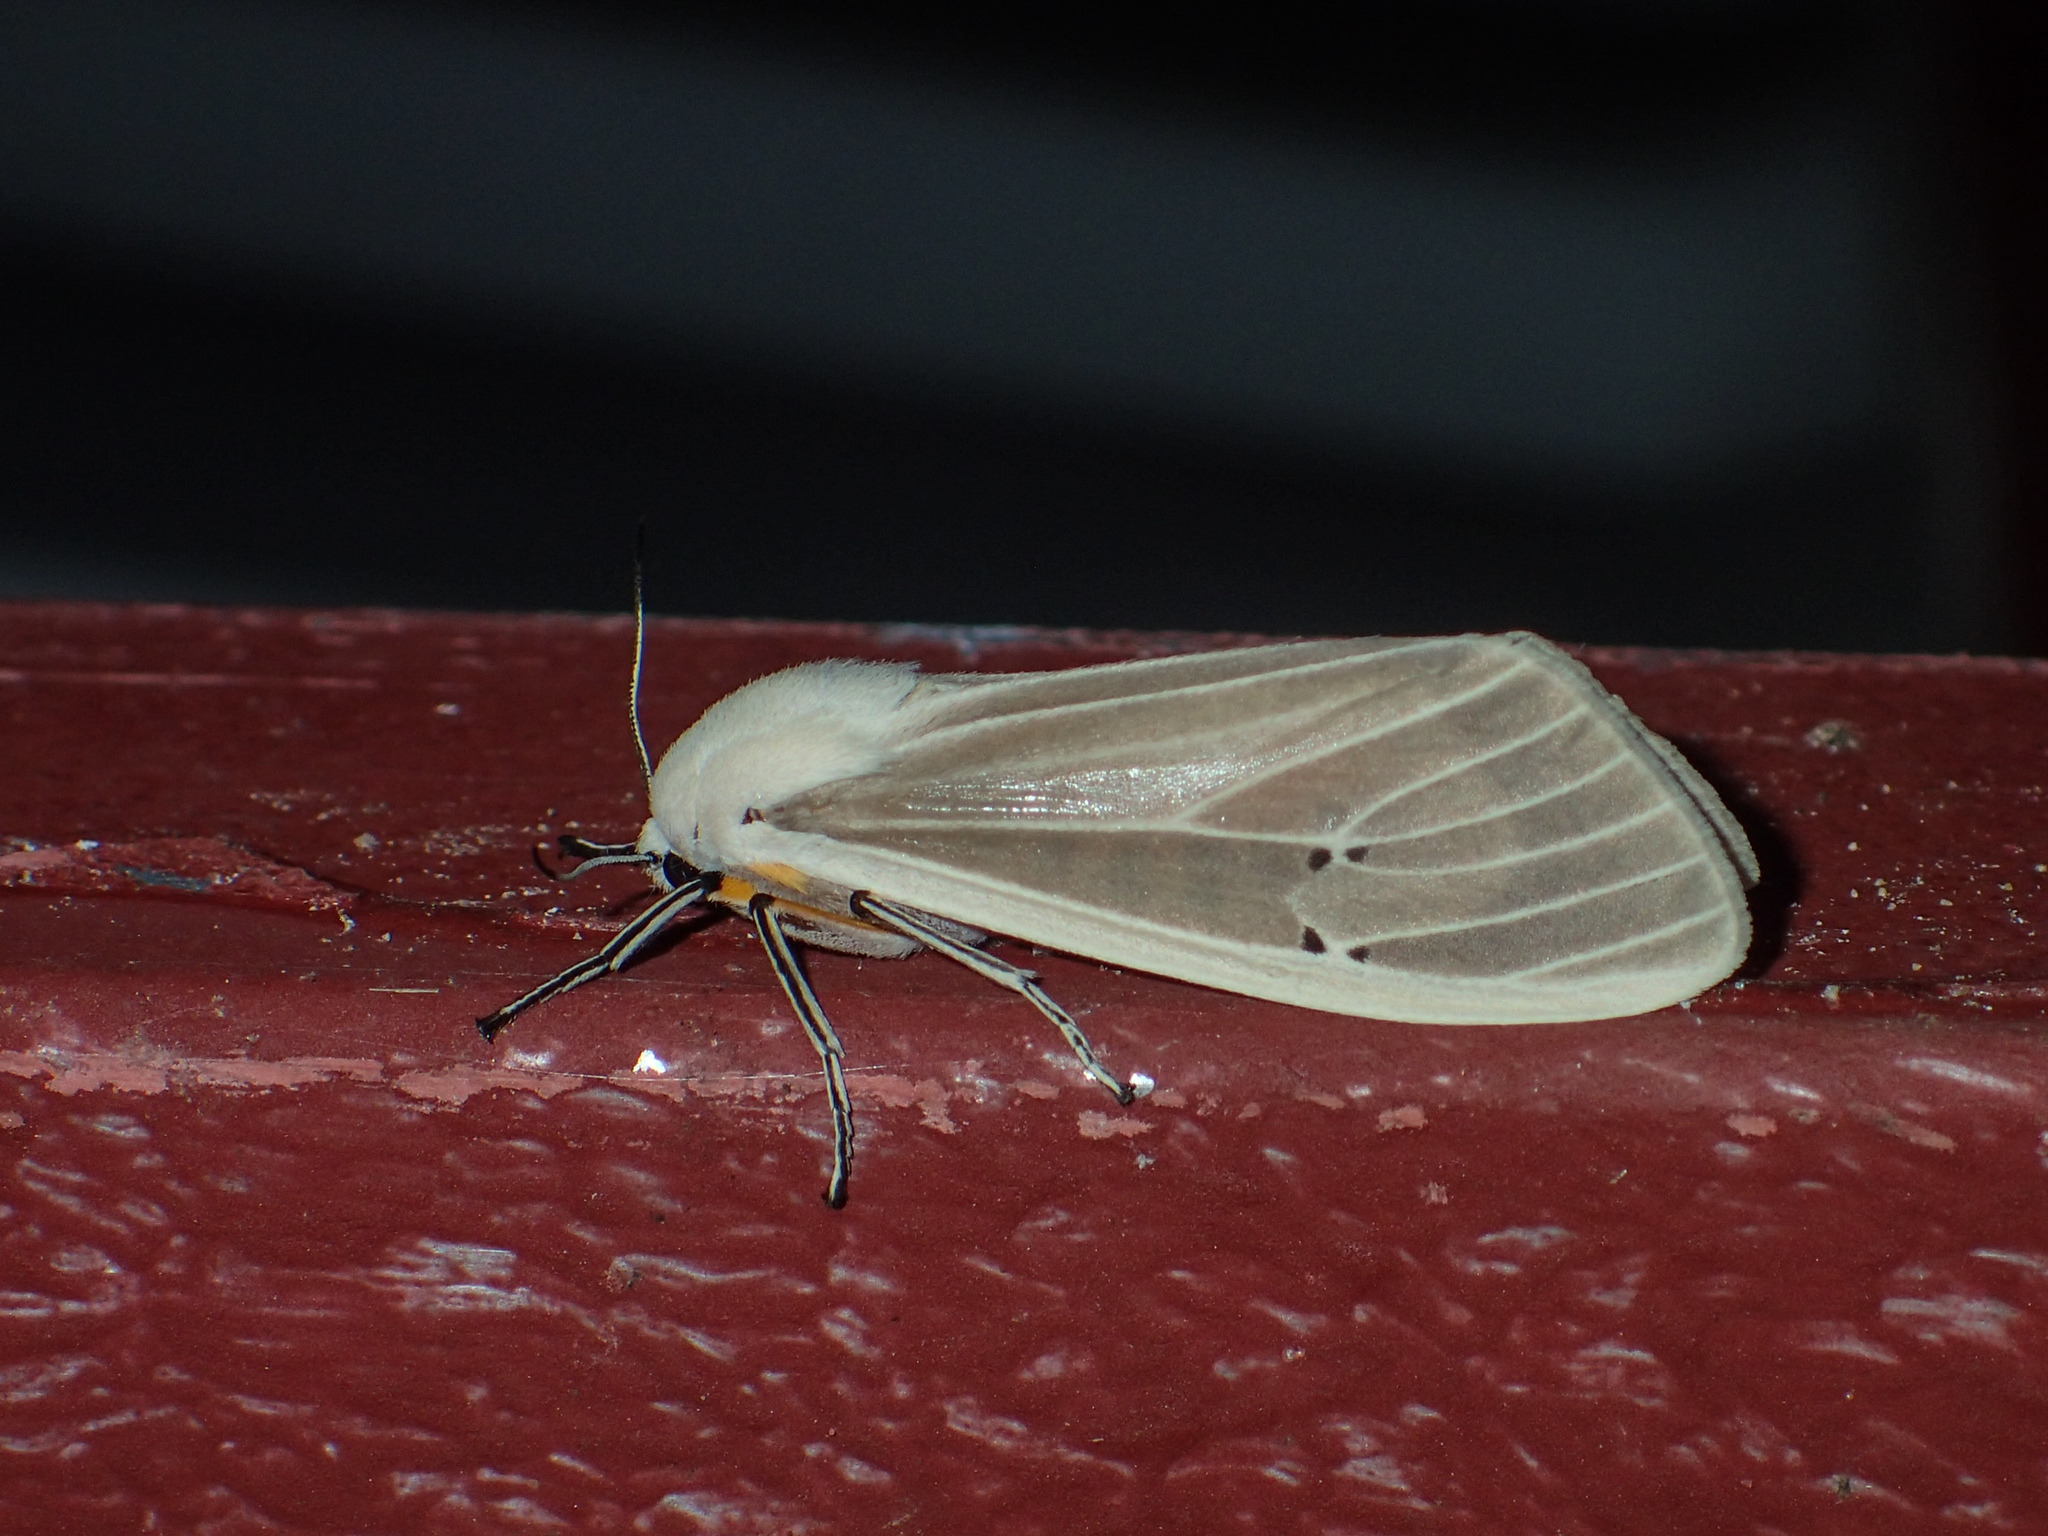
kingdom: Animalia
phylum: Arthropoda
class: Insecta
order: Lepidoptera
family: Erebidae
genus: Creatonotos
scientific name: Creatonotos transiens
